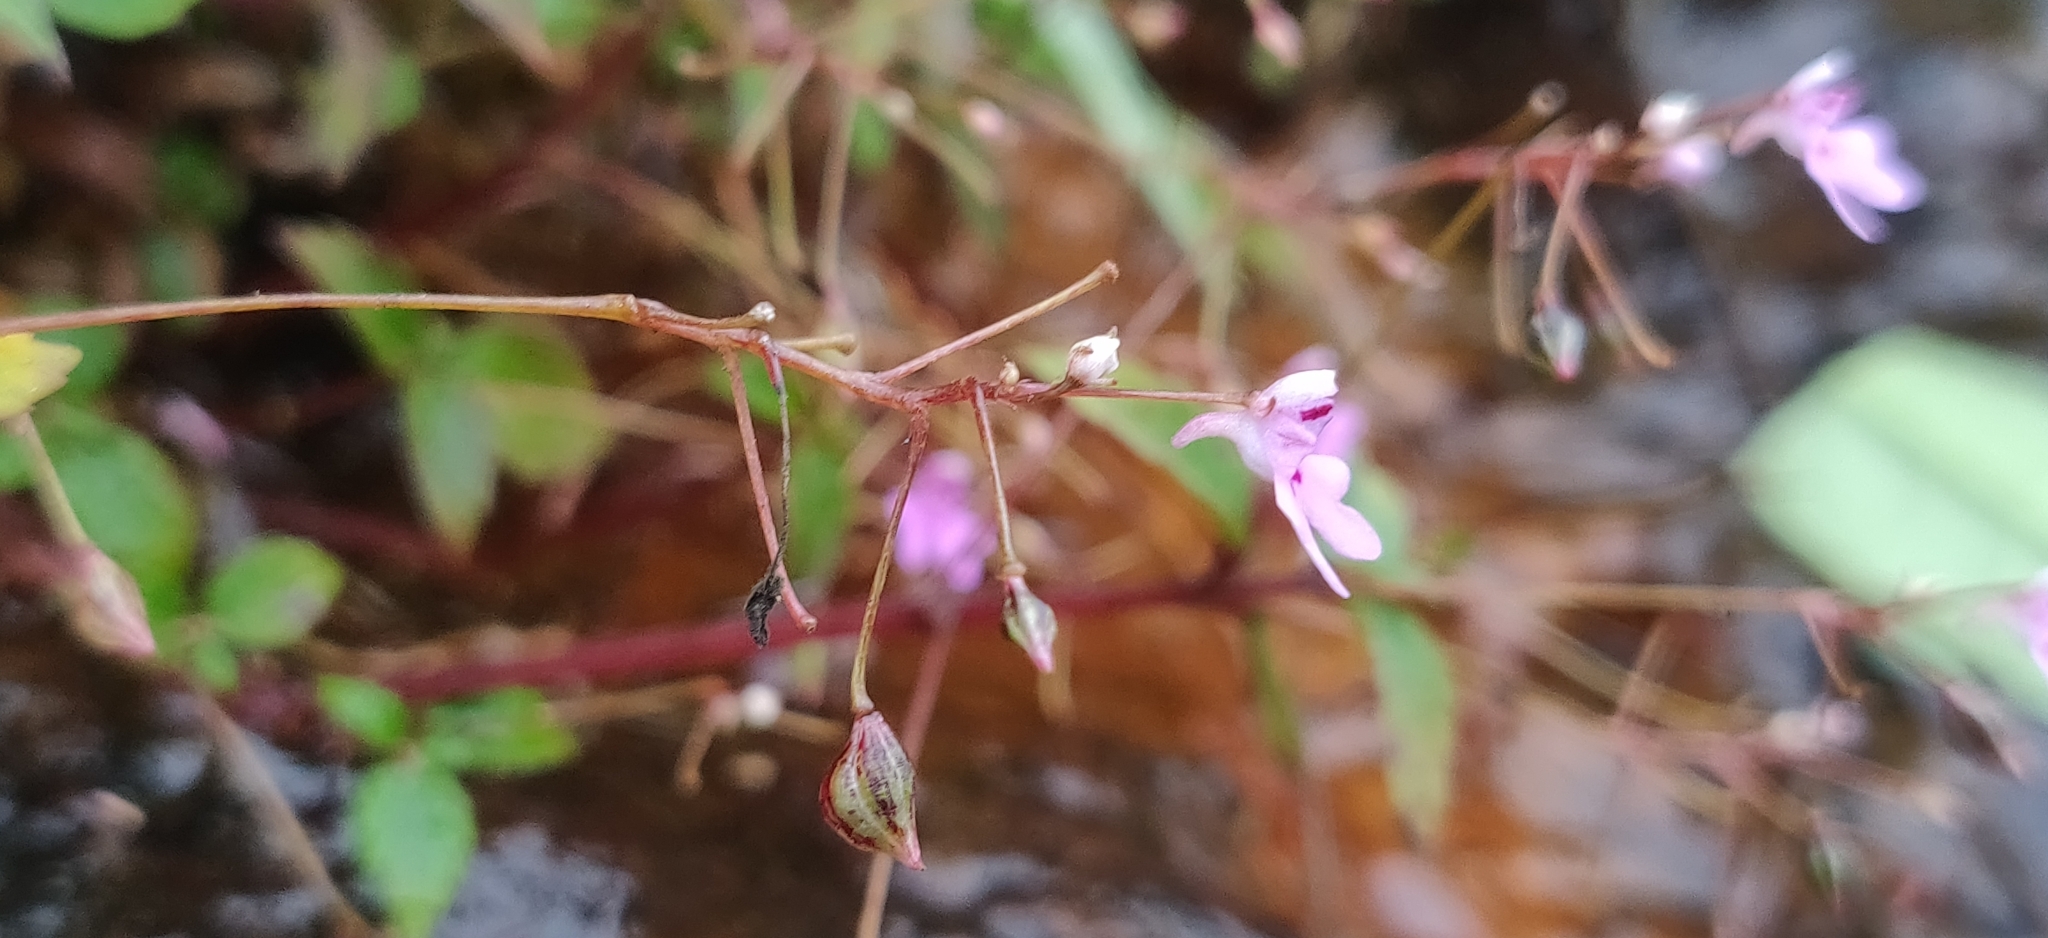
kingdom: Plantae
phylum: Tracheophyta
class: Magnoliopsida
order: Ericales
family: Balsaminaceae
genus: Impatiens
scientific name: Impatiens goughii
